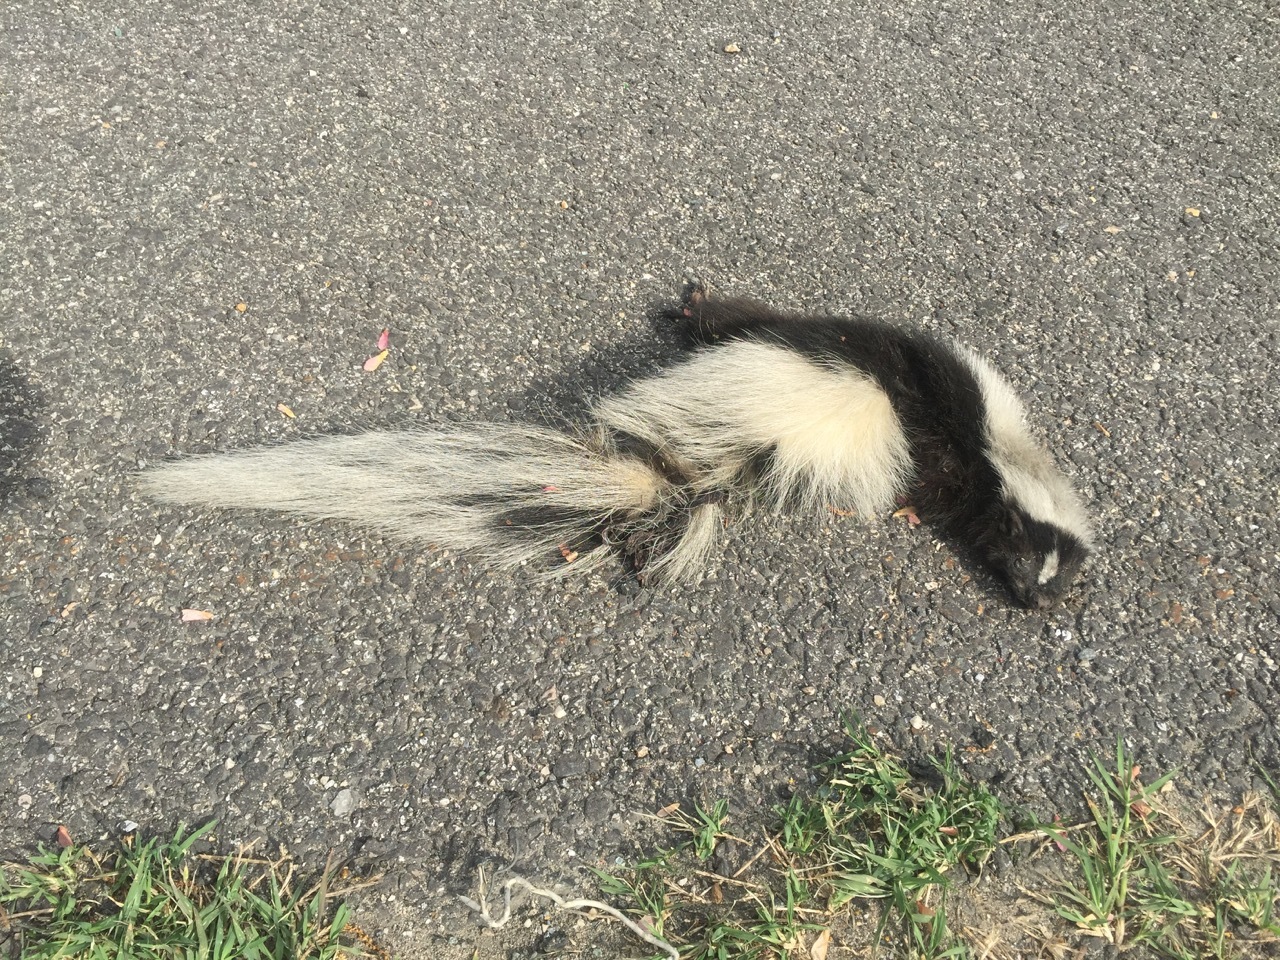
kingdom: Animalia
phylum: Chordata
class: Mammalia
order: Carnivora
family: Mephitidae
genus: Mephitis
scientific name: Mephitis mephitis
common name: Striped skunk
